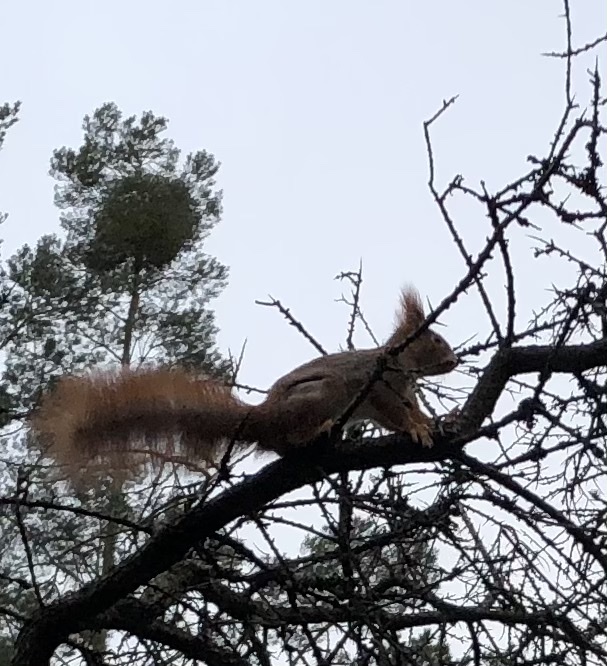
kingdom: Animalia
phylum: Chordata
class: Mammalia
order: Rodentia
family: Sciuridae
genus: Sciurus
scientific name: Sciurus vulgaris
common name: Eurasian red squirrel
